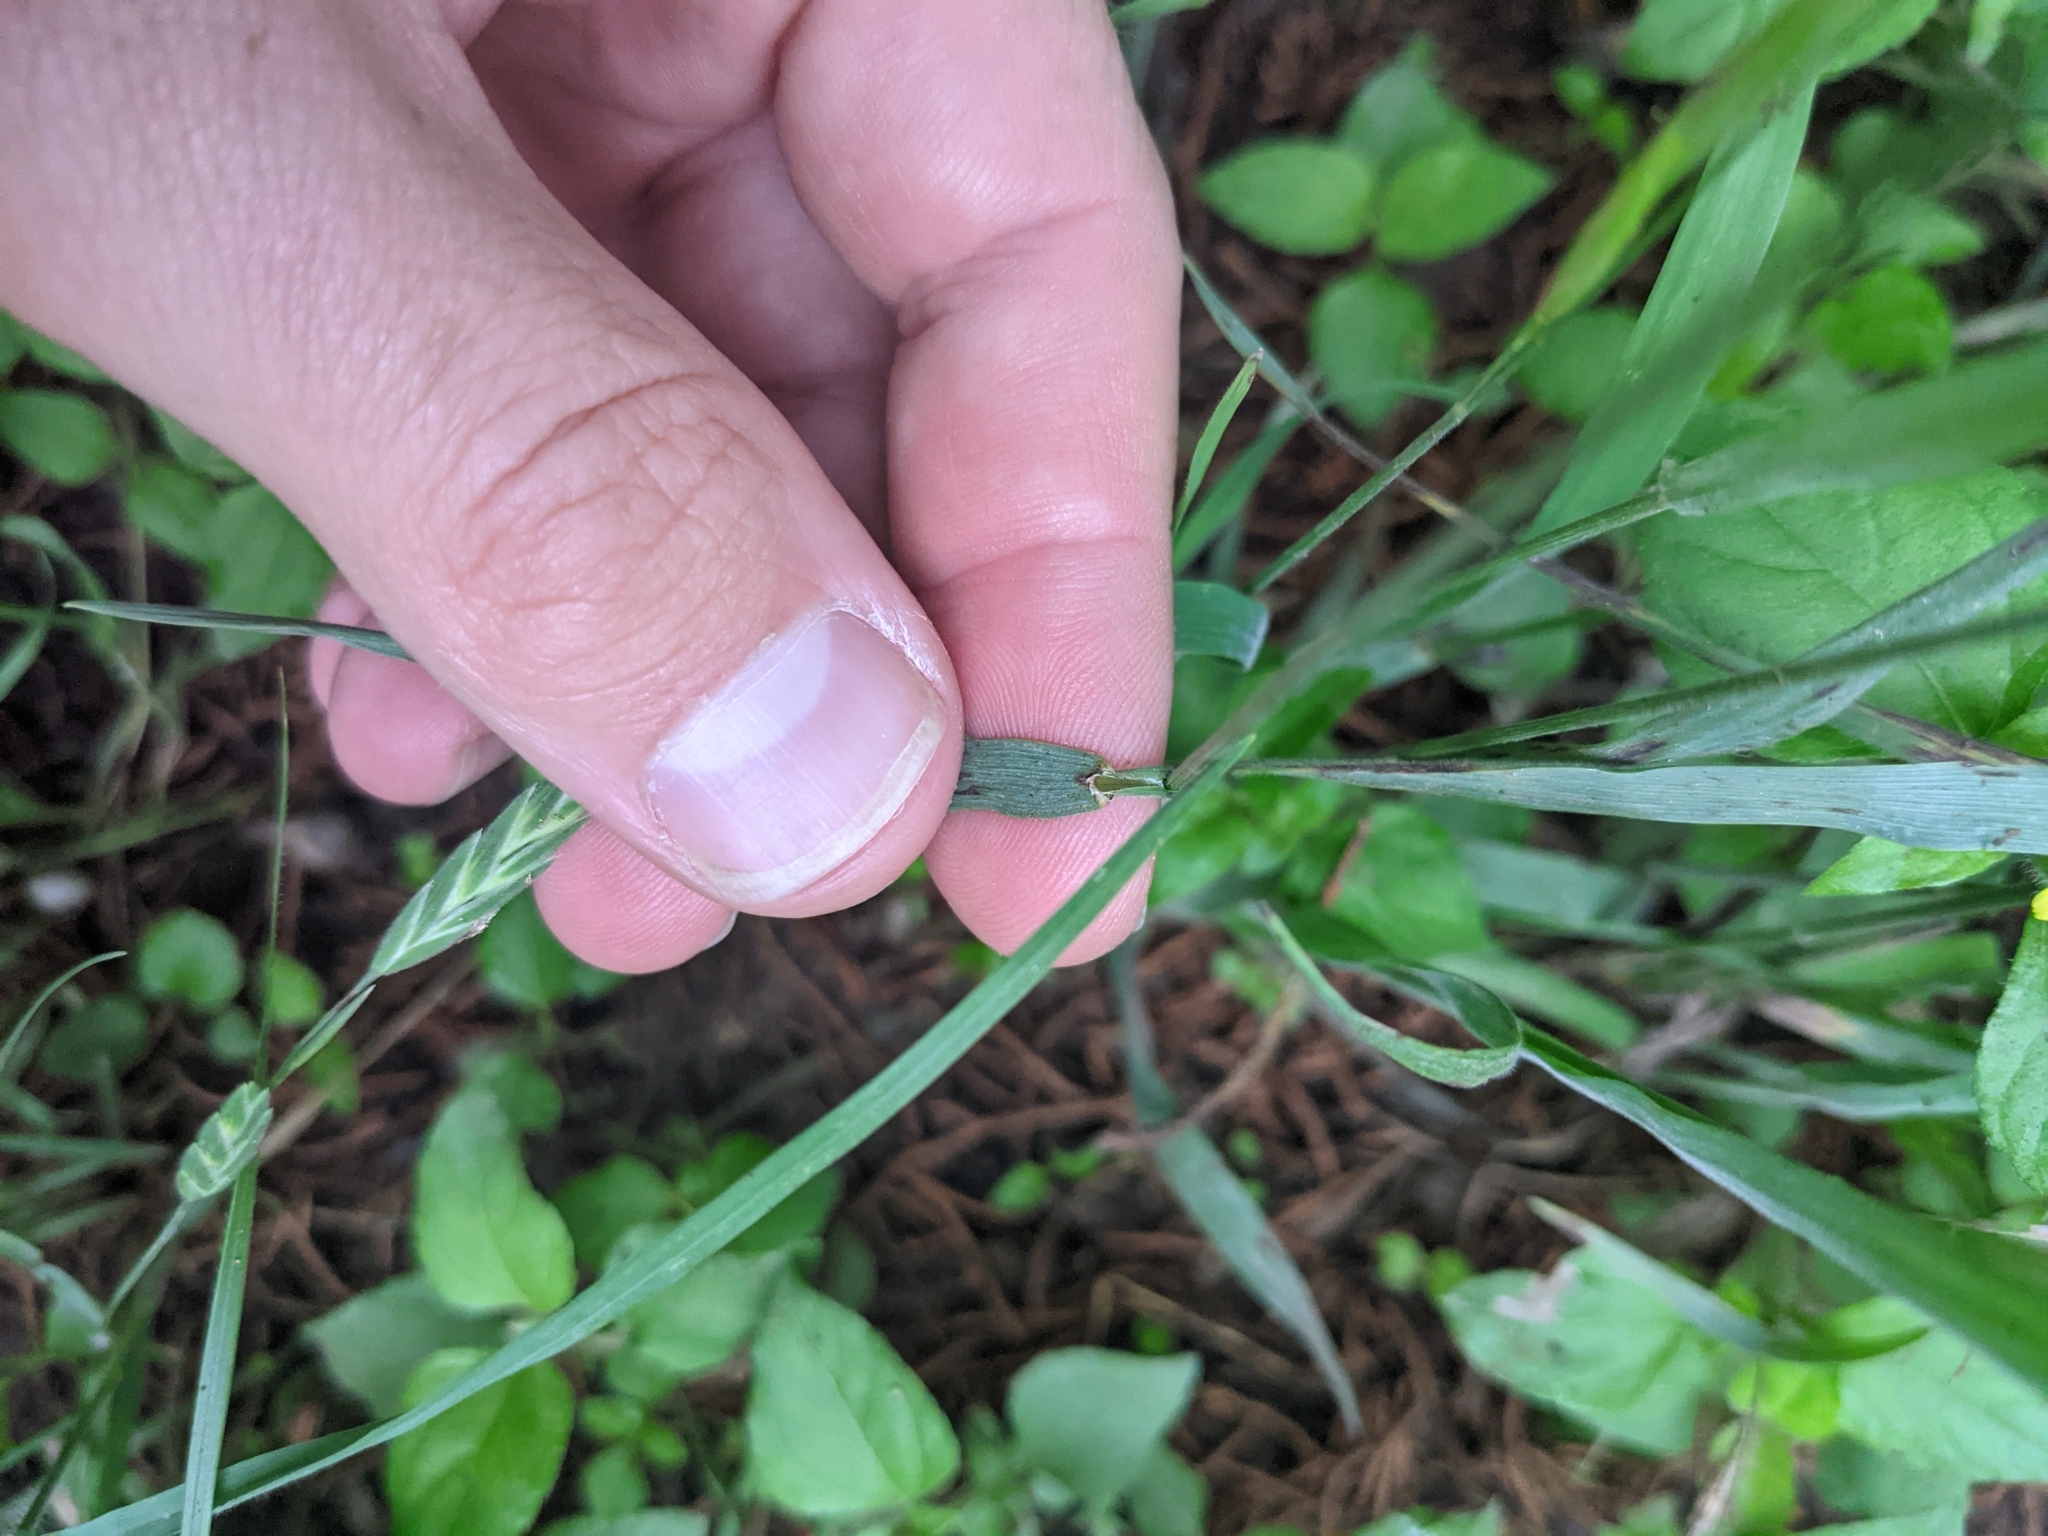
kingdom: Plantae
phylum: Tracheophyta
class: Liliopsida
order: Poales
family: Poaceae
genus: Bromus
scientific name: Bromus texensis
